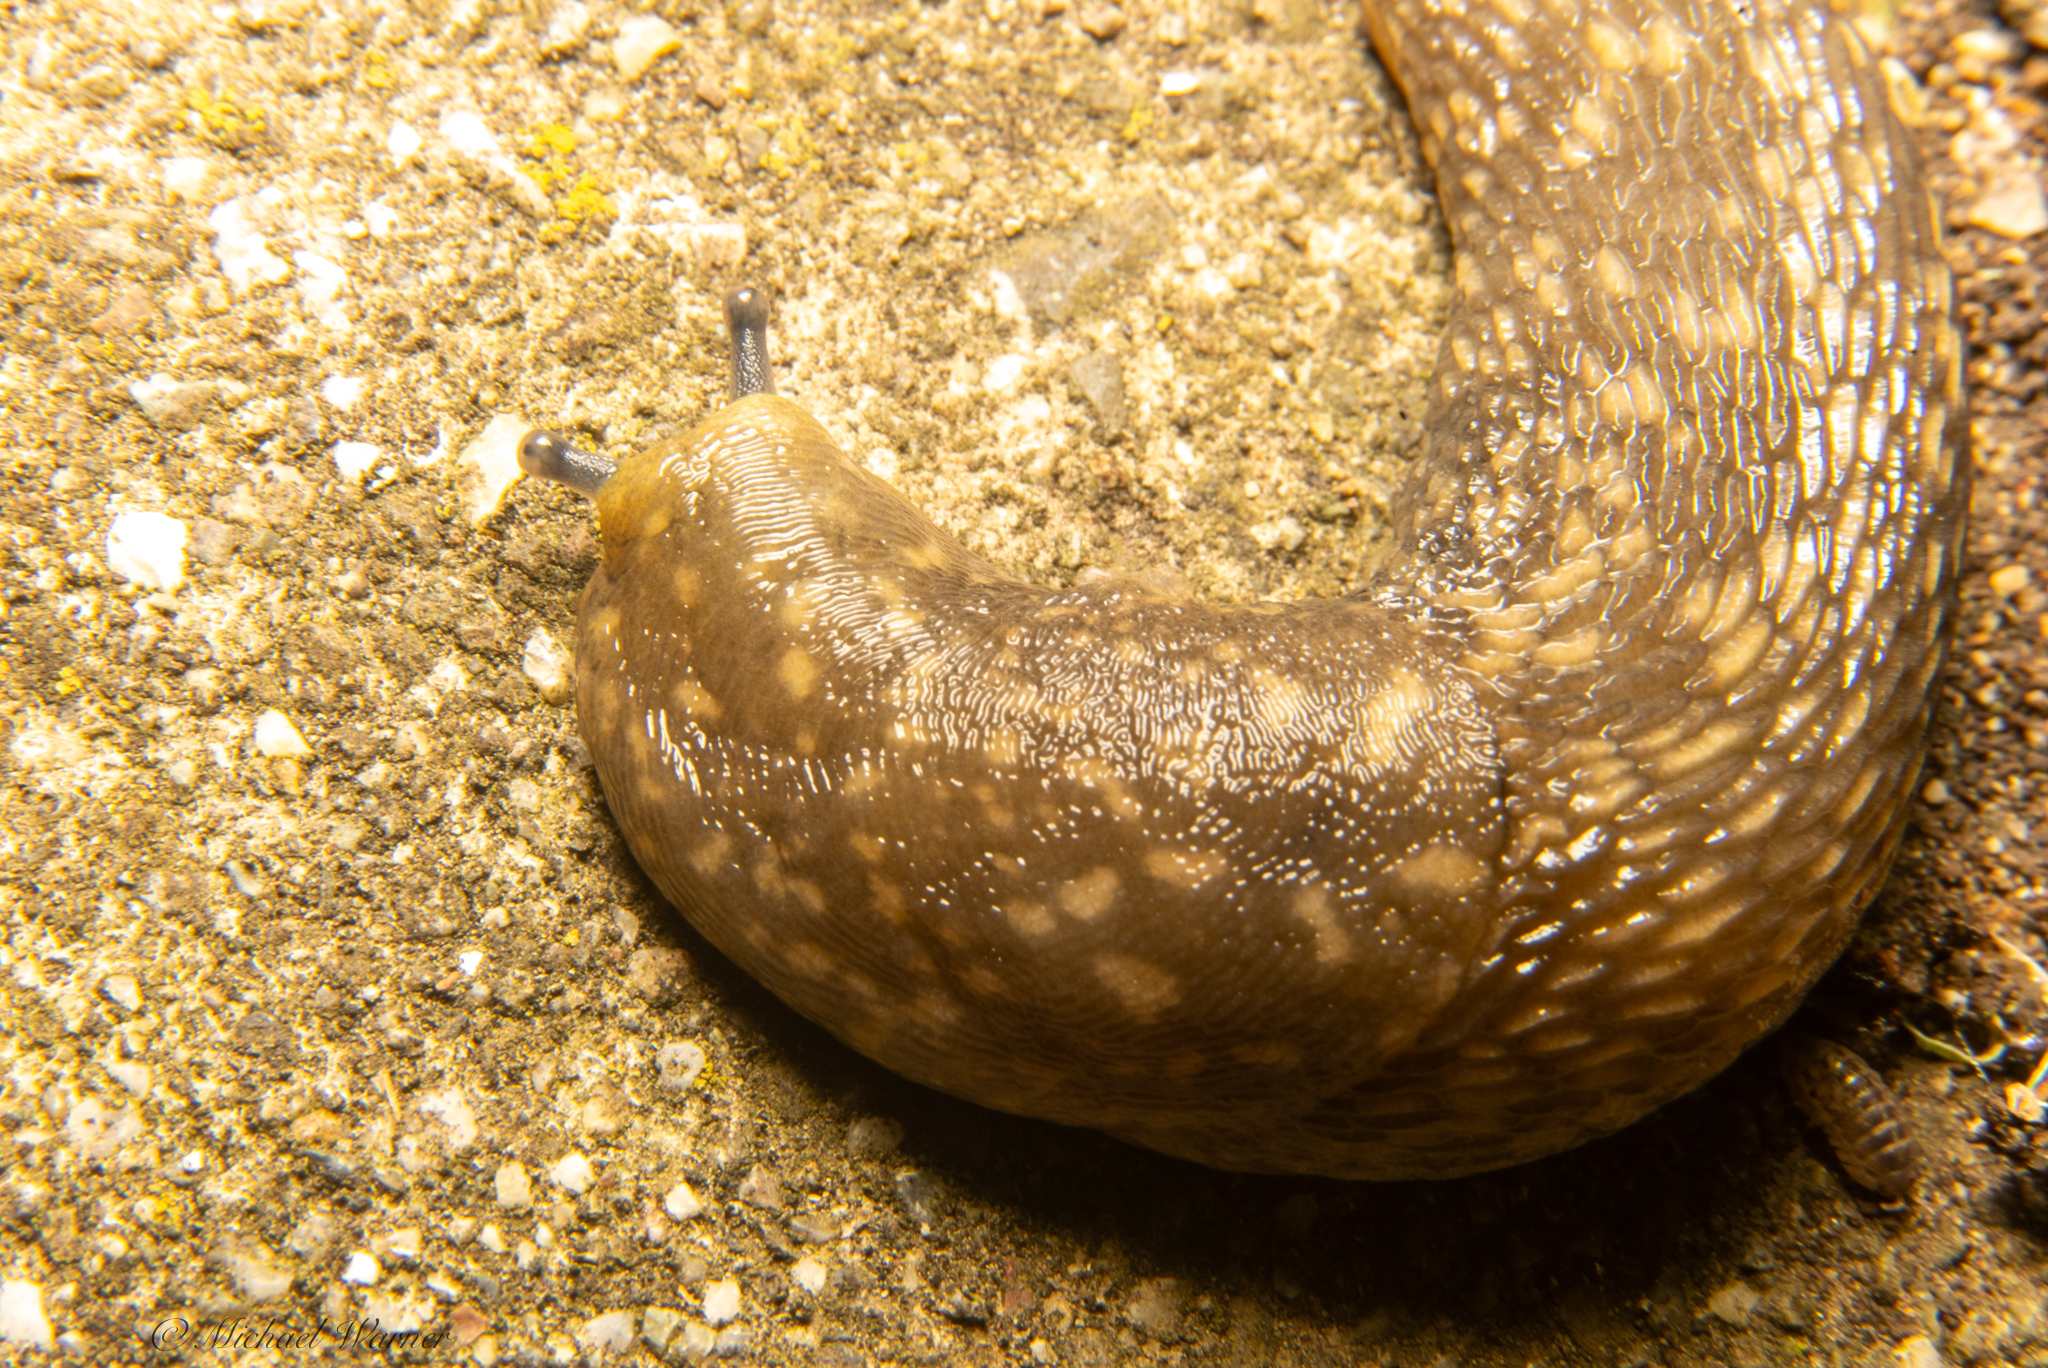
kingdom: Animalia
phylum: Mollusca
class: Gastropoda
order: Stylommatophora
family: Limacidae
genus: Limacus
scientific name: Limacus flavus
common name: Yellow gardenslug
